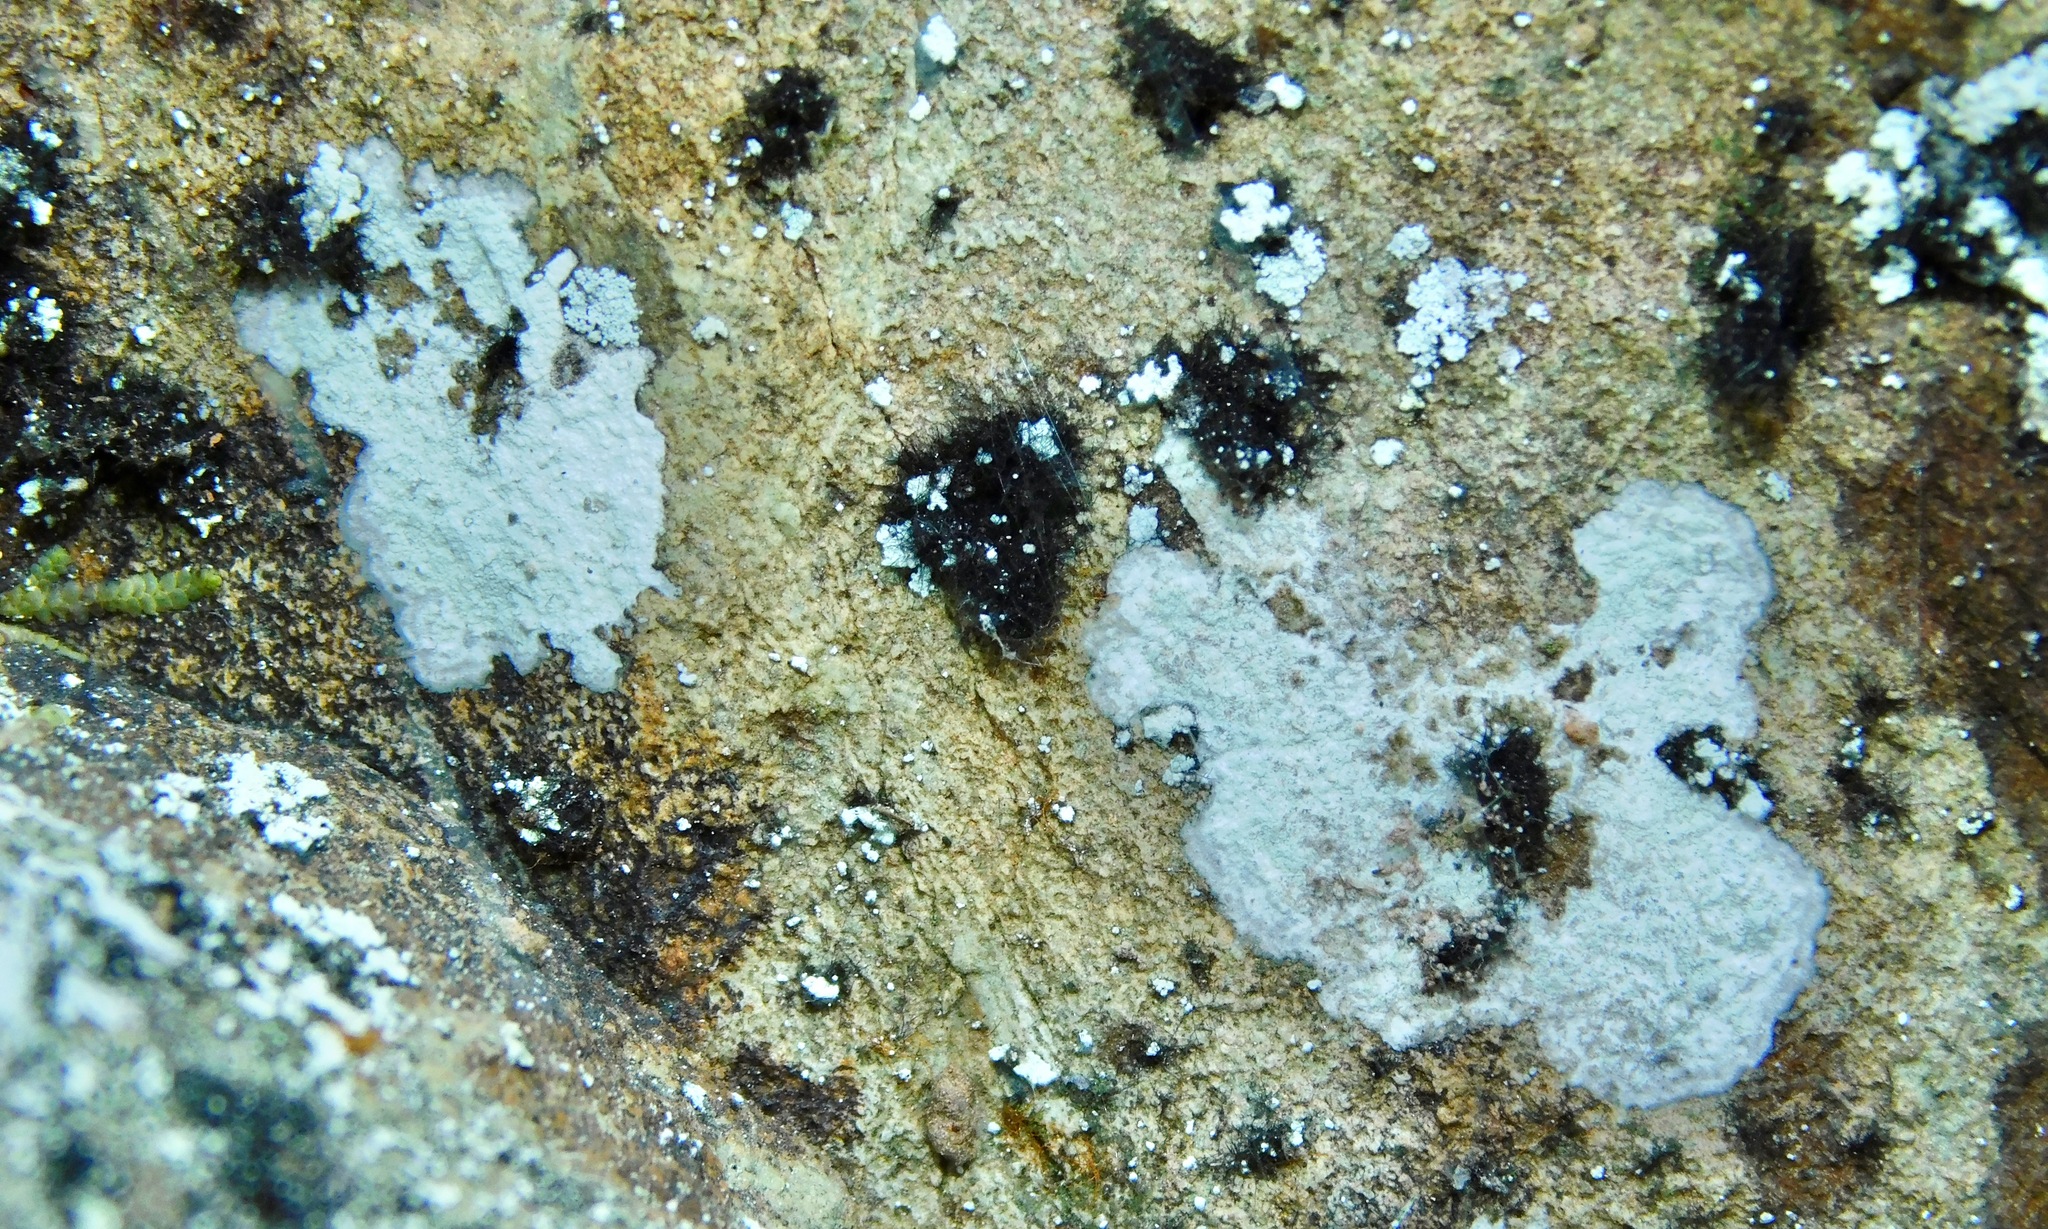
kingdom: Fungi
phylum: Ascomycota
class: Dothideomycetes
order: Capnodiales
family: Cystocoleaceae
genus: Cystocoleus
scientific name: Cystocoleus ebeneus
